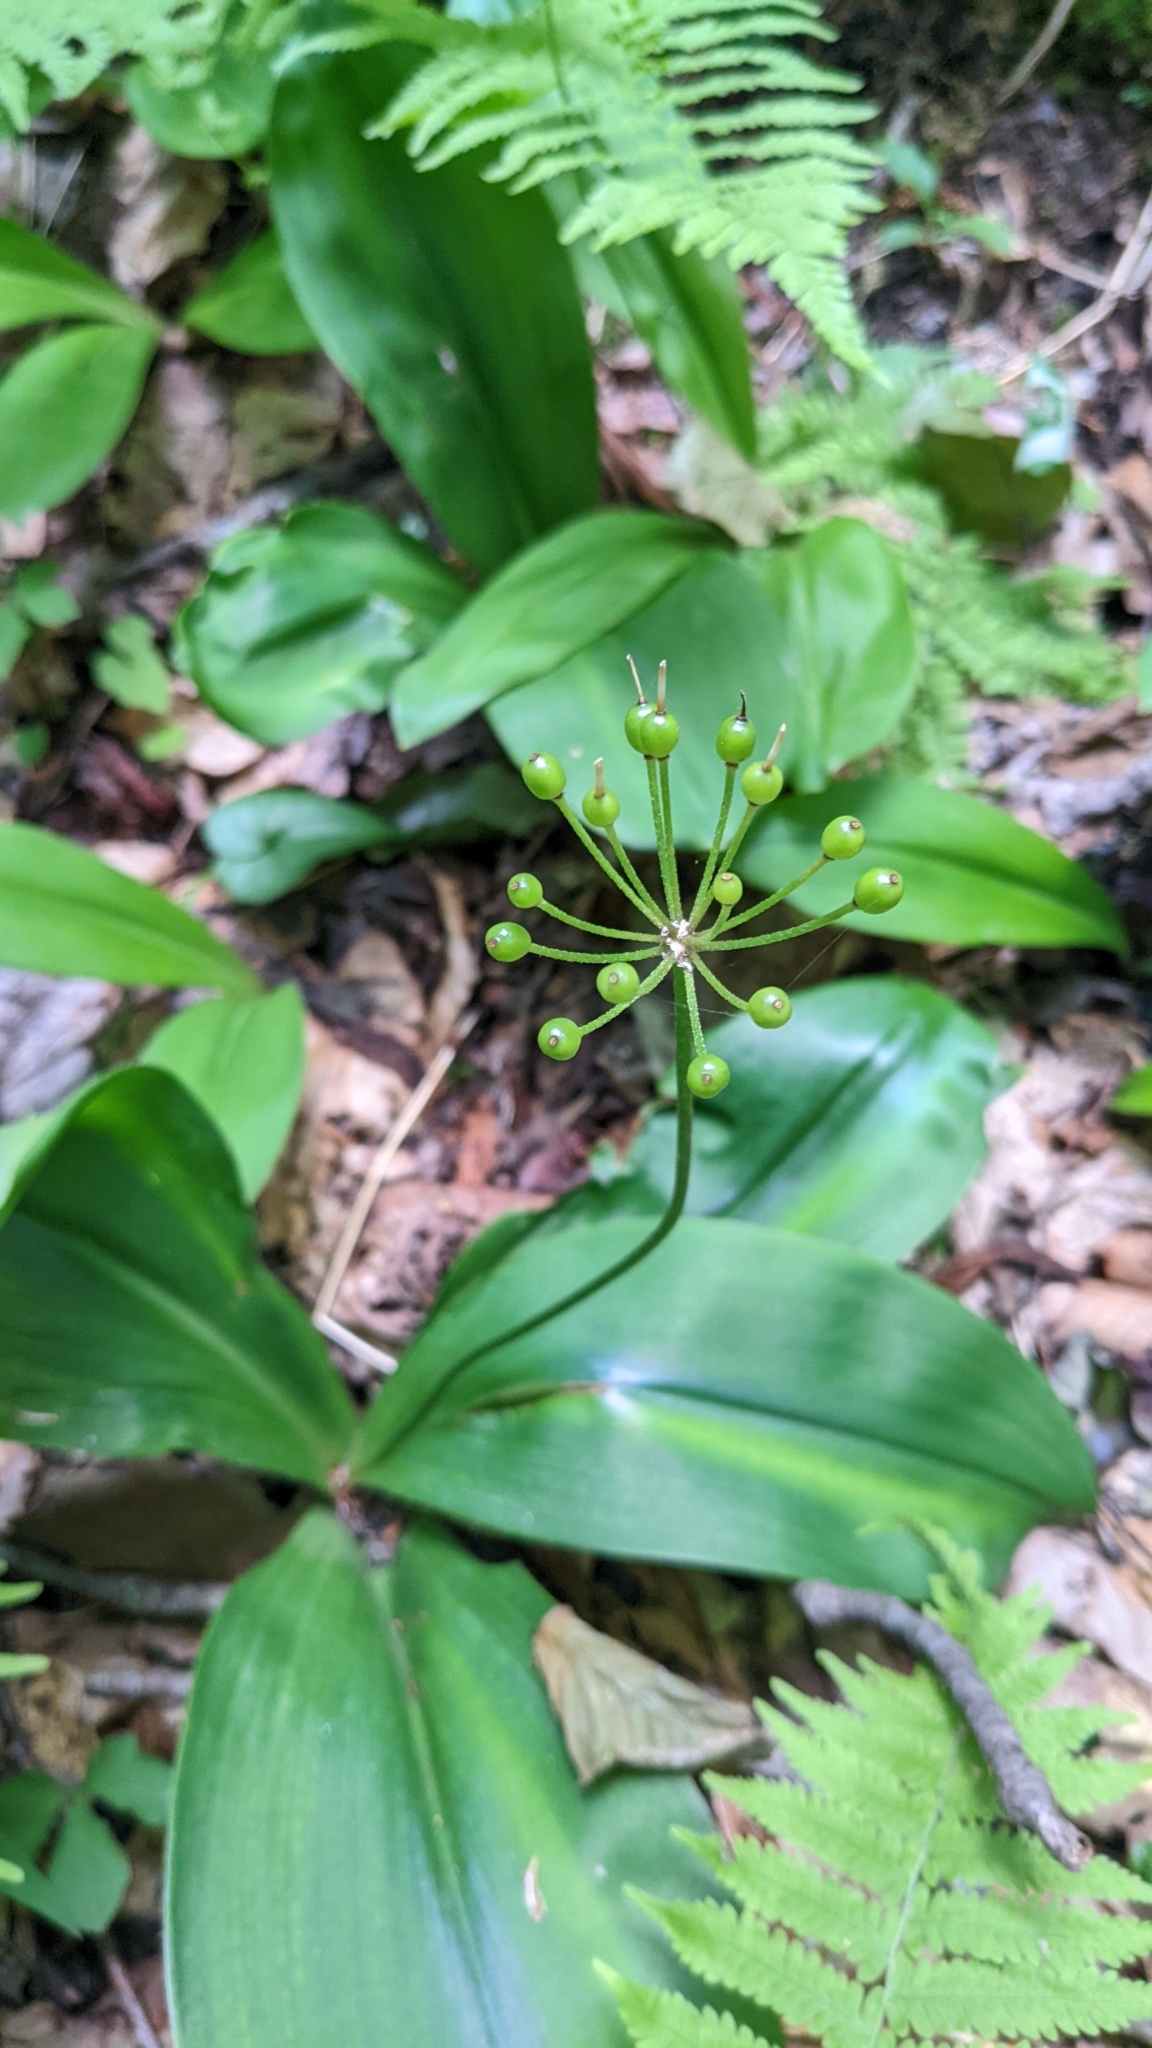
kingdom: Plantae
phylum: Tracheophyta
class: Liliopsida
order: Liliales
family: Liliaceae
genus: Clintonia
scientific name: Clintonia umbellulata
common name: Speckle wood-lily
